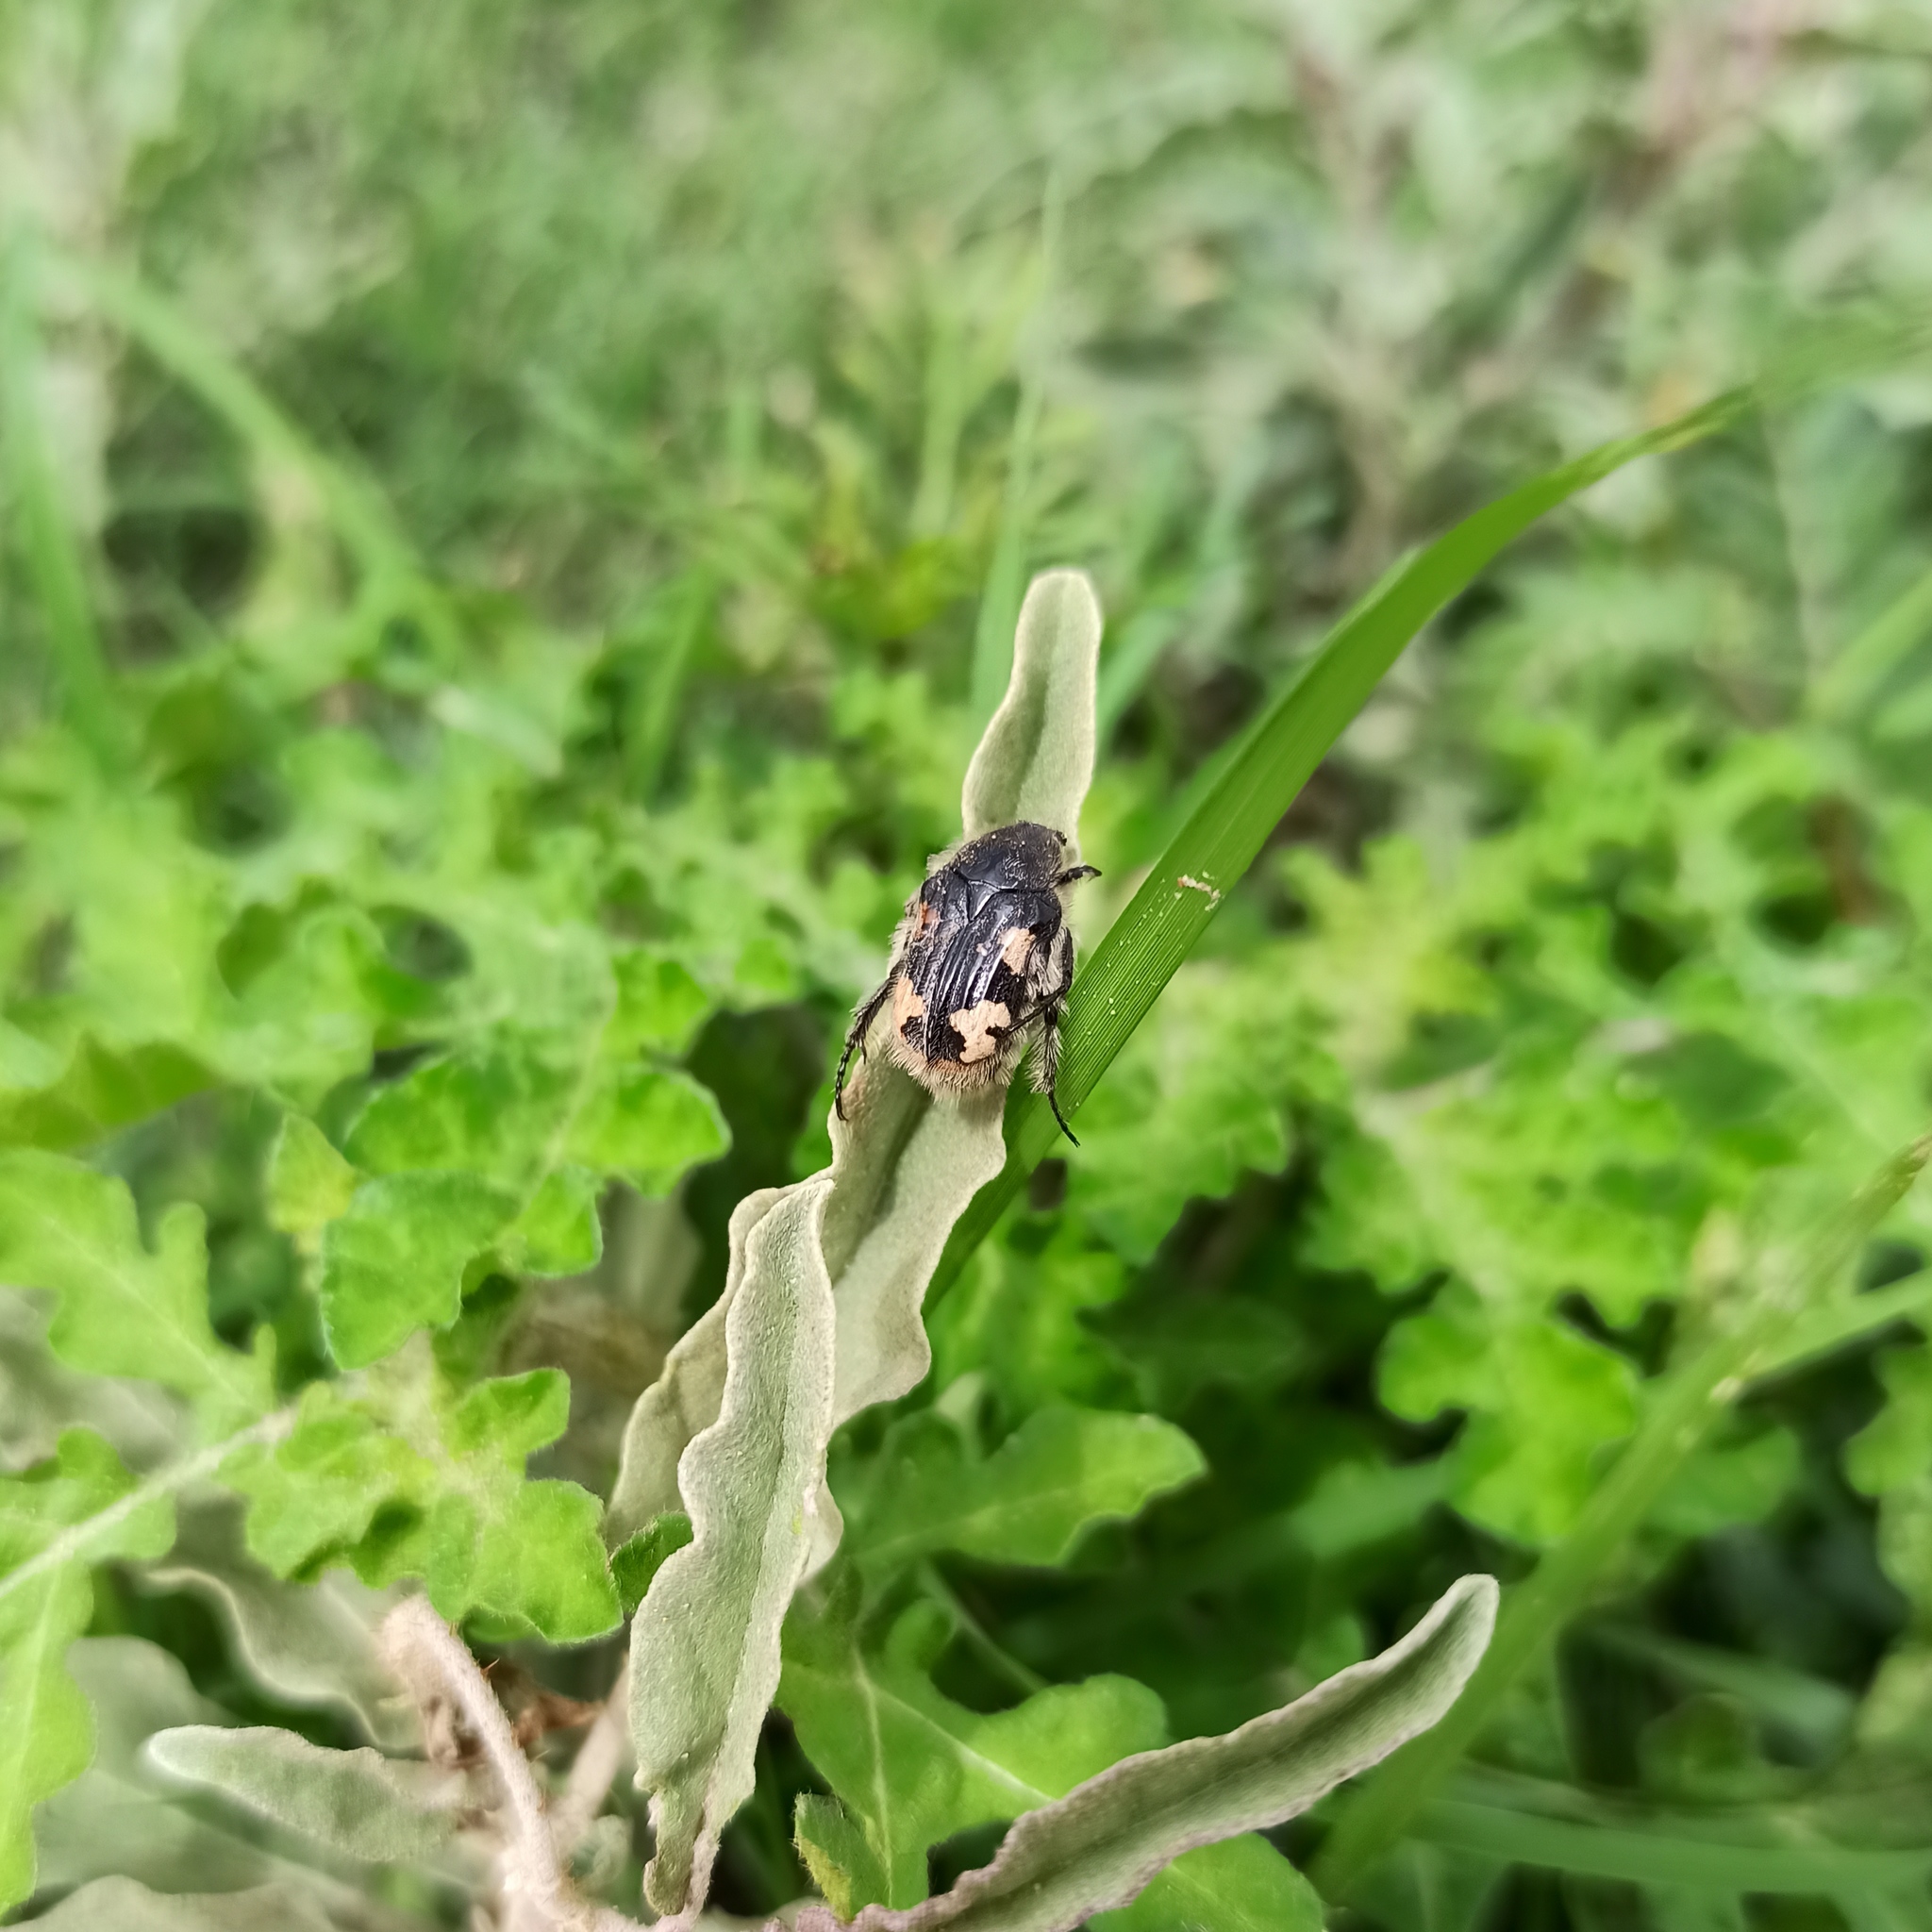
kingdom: Animalia
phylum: Arthropoda
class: Insecta
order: Coleoptera
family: Scarabaeidae
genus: Euphoria
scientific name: Euphoria basalis
